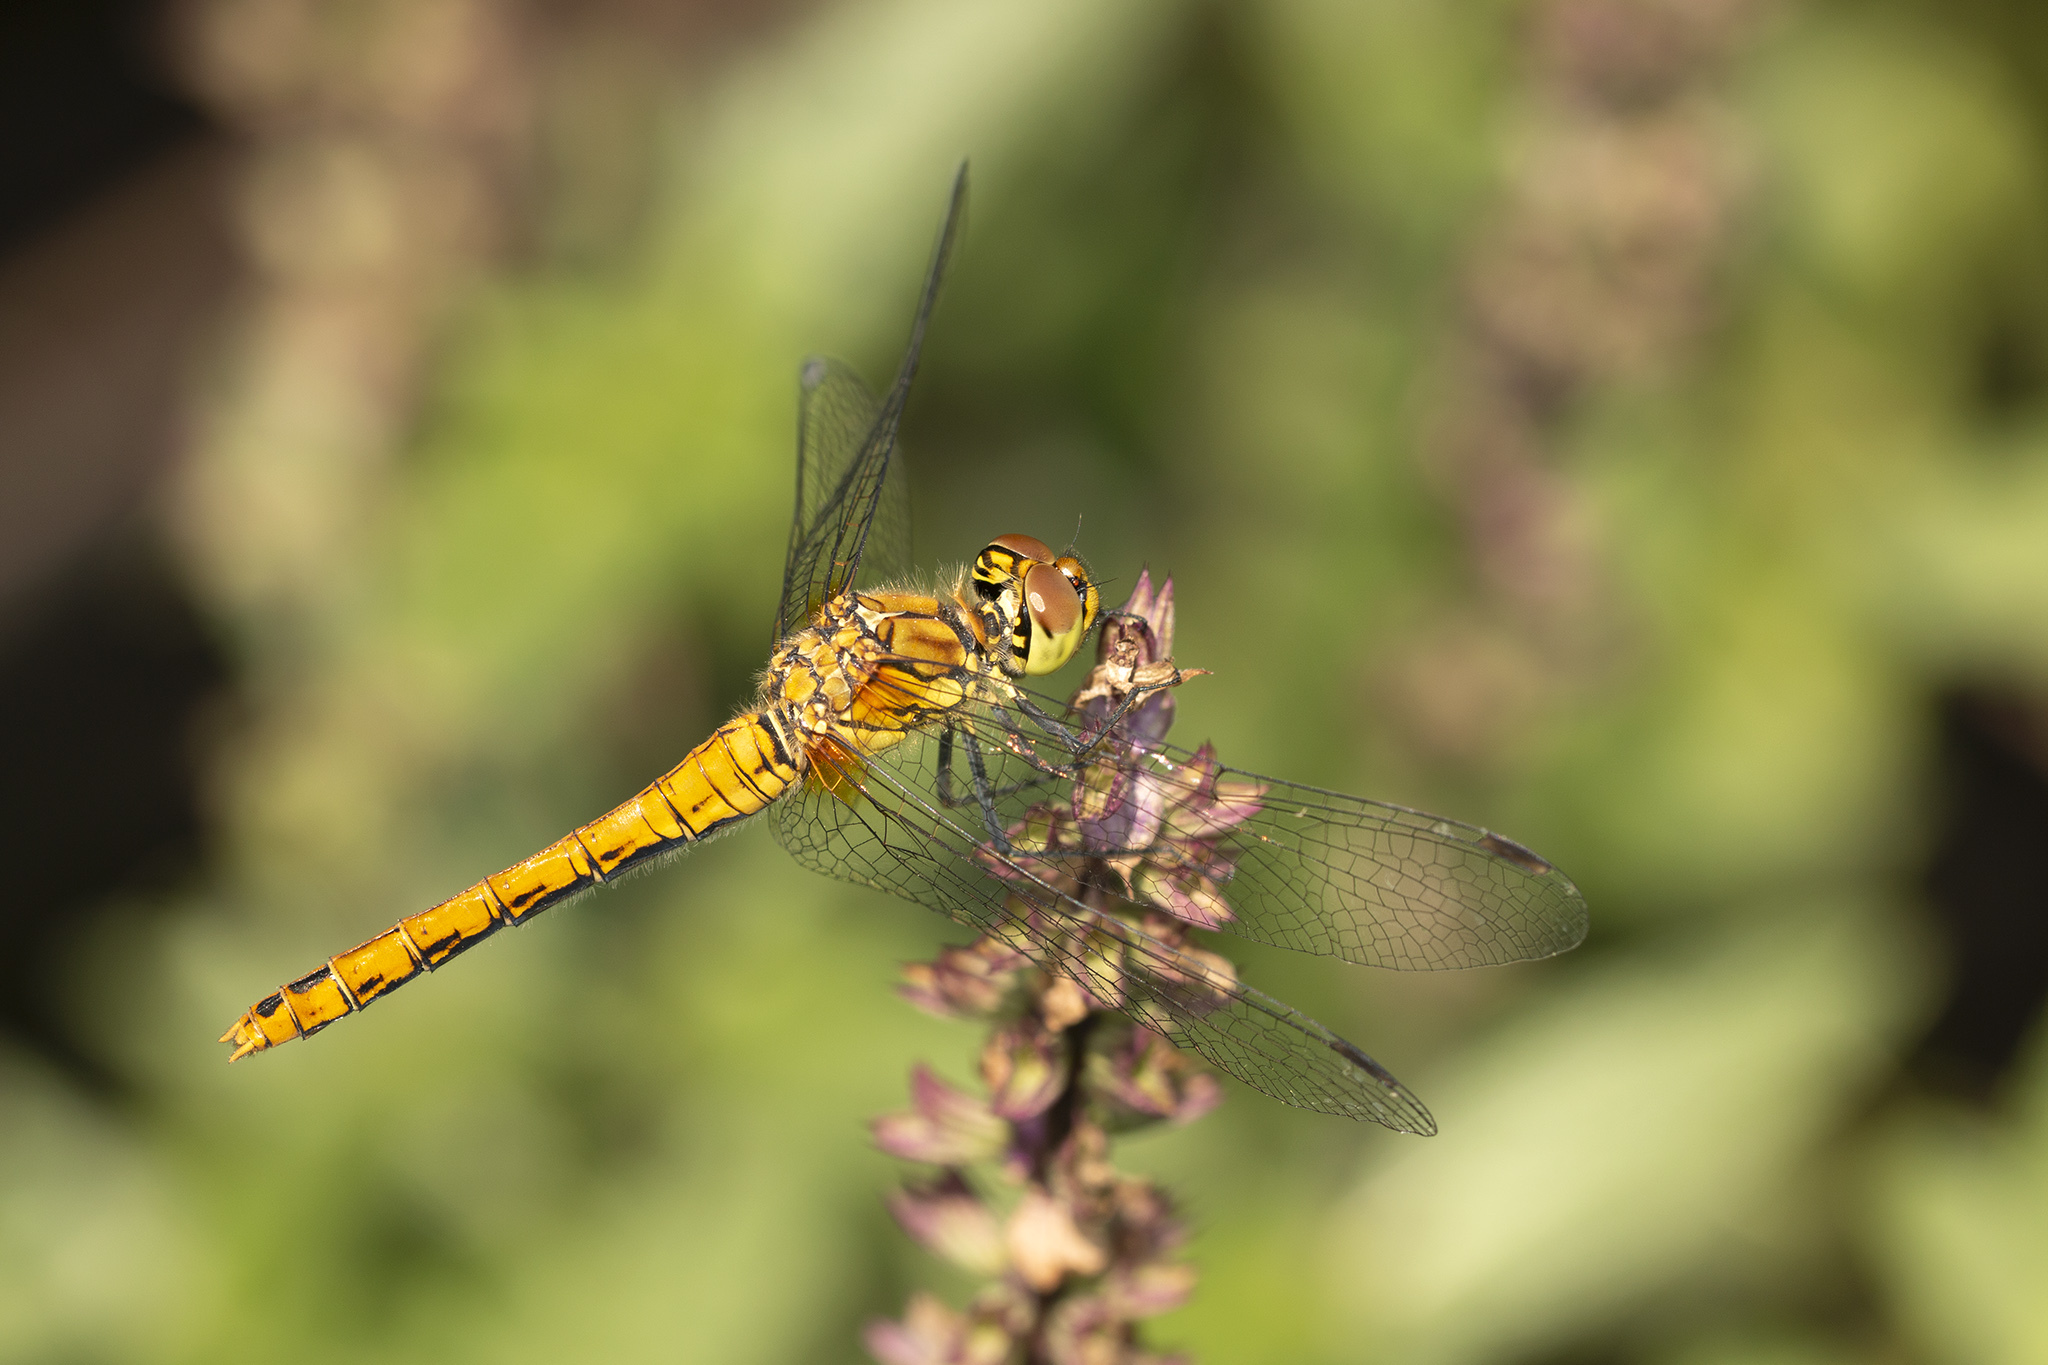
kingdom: Animalia
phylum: Arthropoda
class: Insecta
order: Odonata
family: Libellulidae
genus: Sympetrum
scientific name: Sympetrum sanguineum
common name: Ruddy darter
